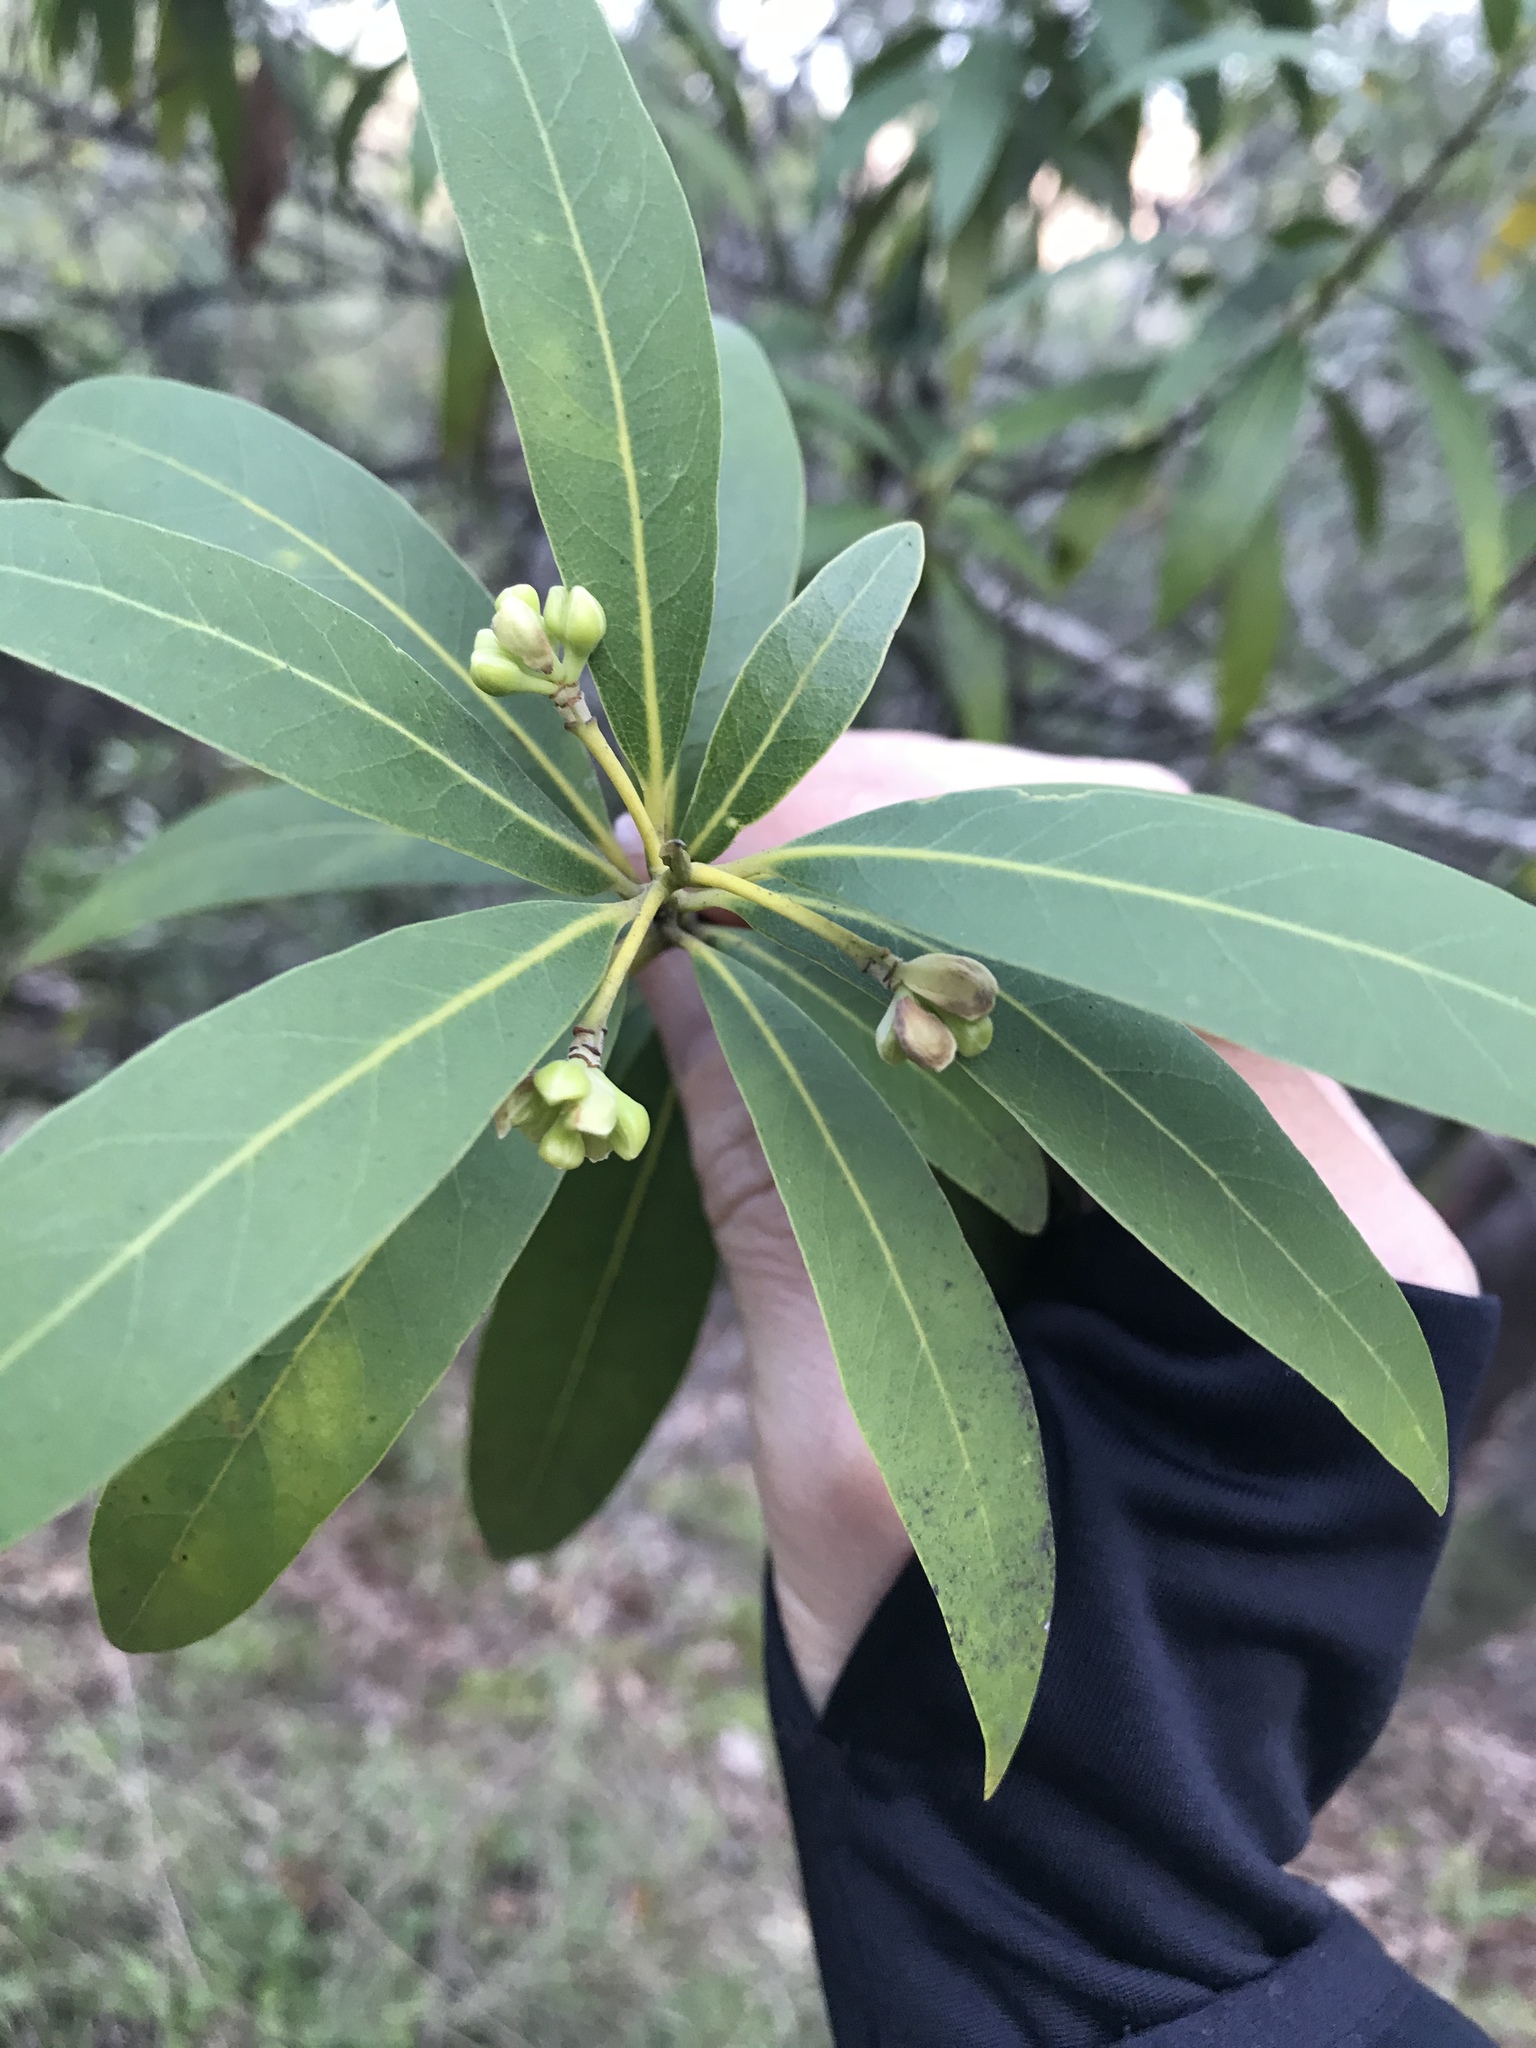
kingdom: Plantae
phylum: Tracheophyta
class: Magnoliopsida
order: Laurales
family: Lauraceae
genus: Umbellularia
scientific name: Umbellularia californica
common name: California bay
